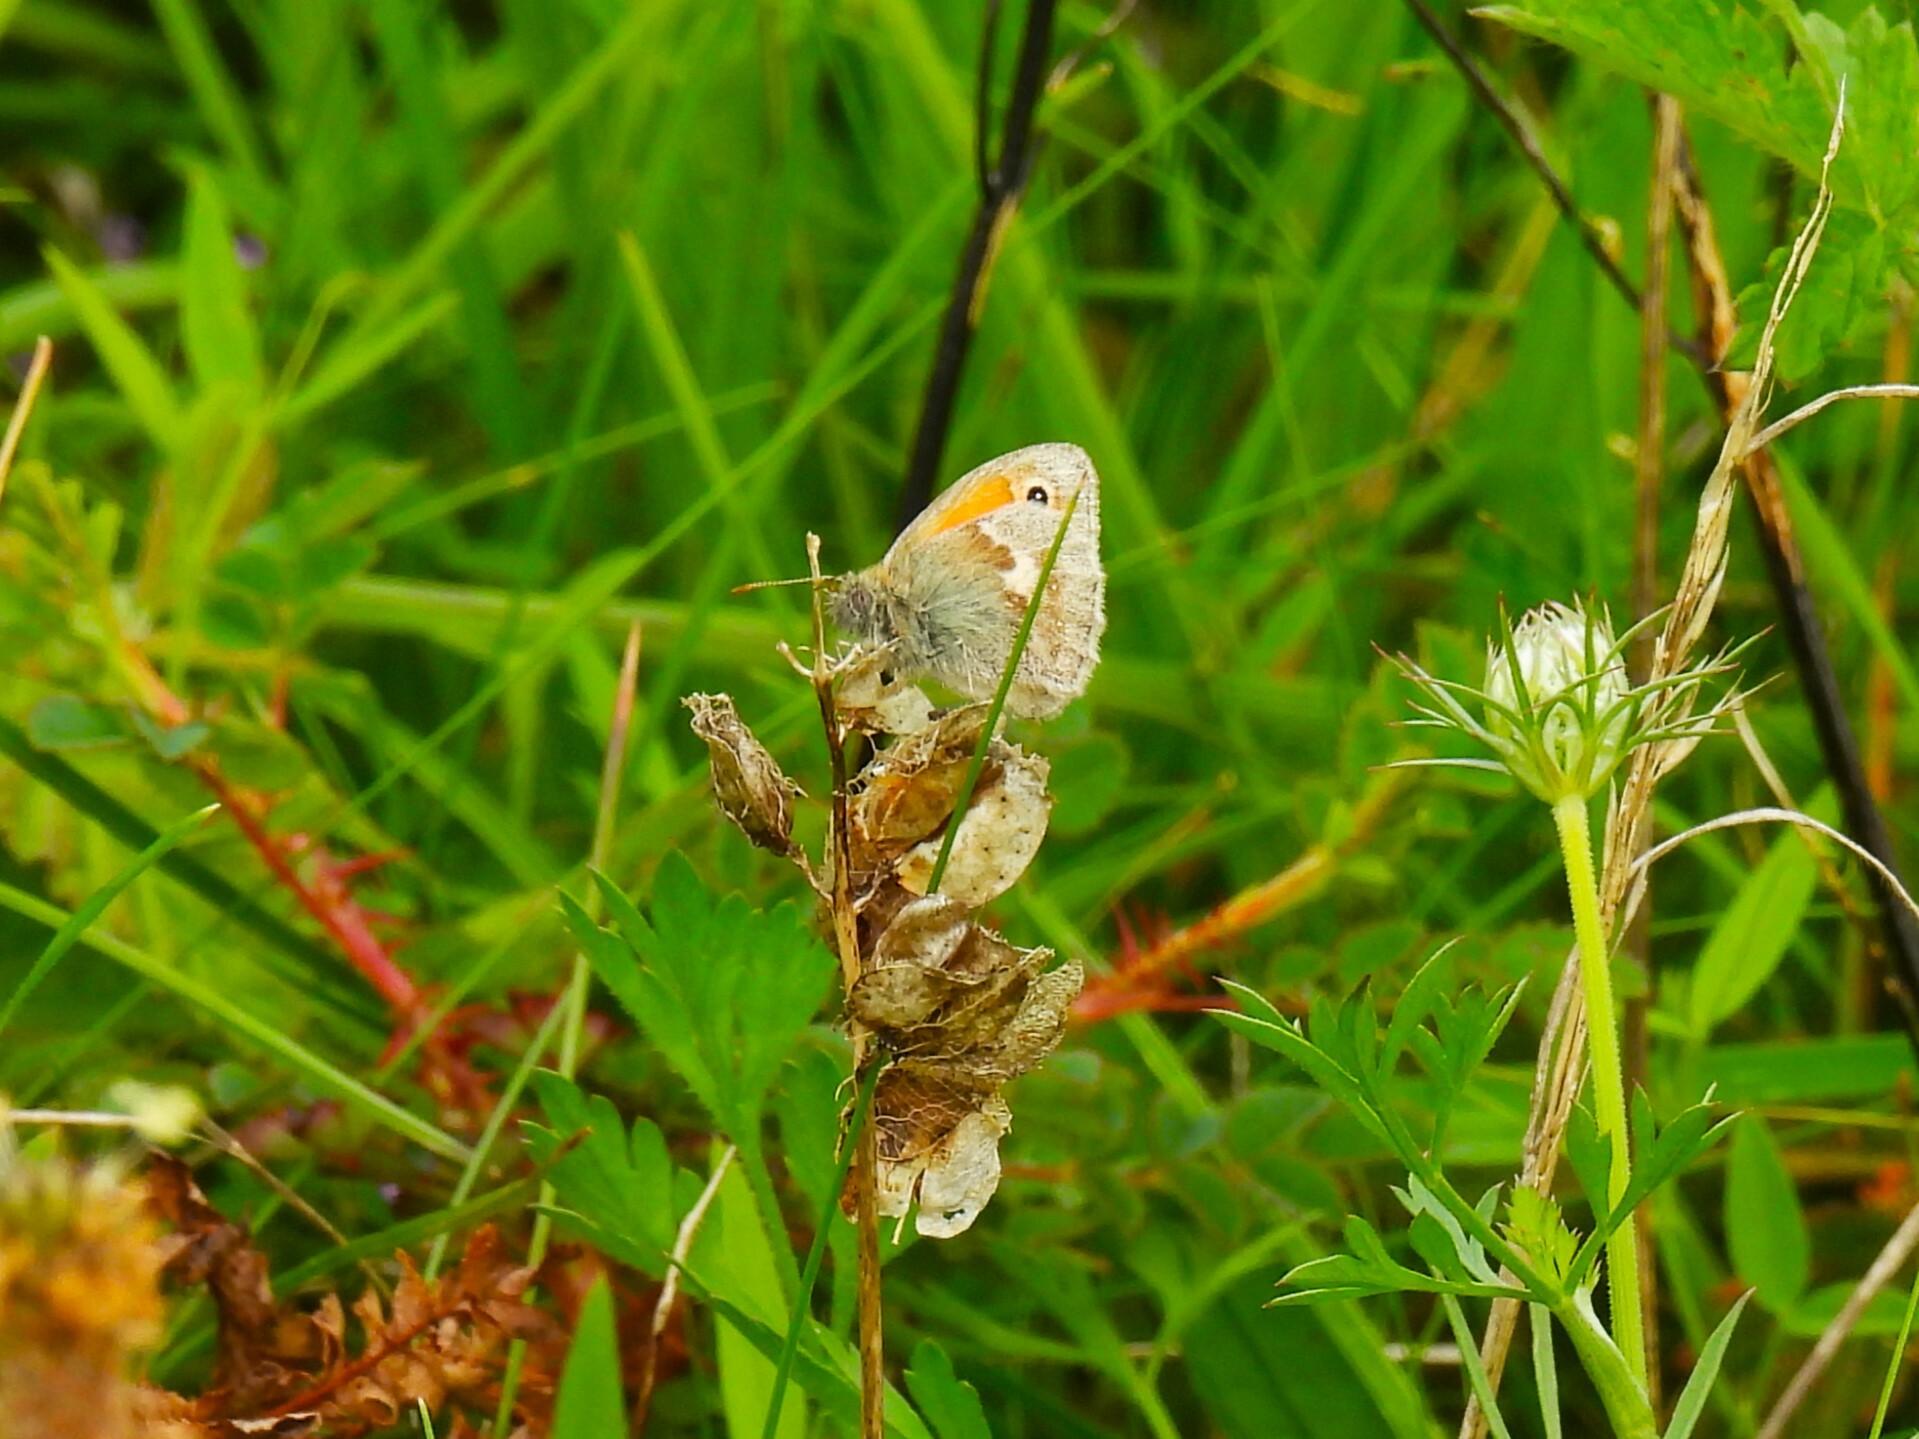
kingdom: Animalia
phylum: Arthropoda
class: Insecta
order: Lepidoptera
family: Nymphalidae
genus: Coenonympha
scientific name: Coenonympha pamphilus
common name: Small heath
